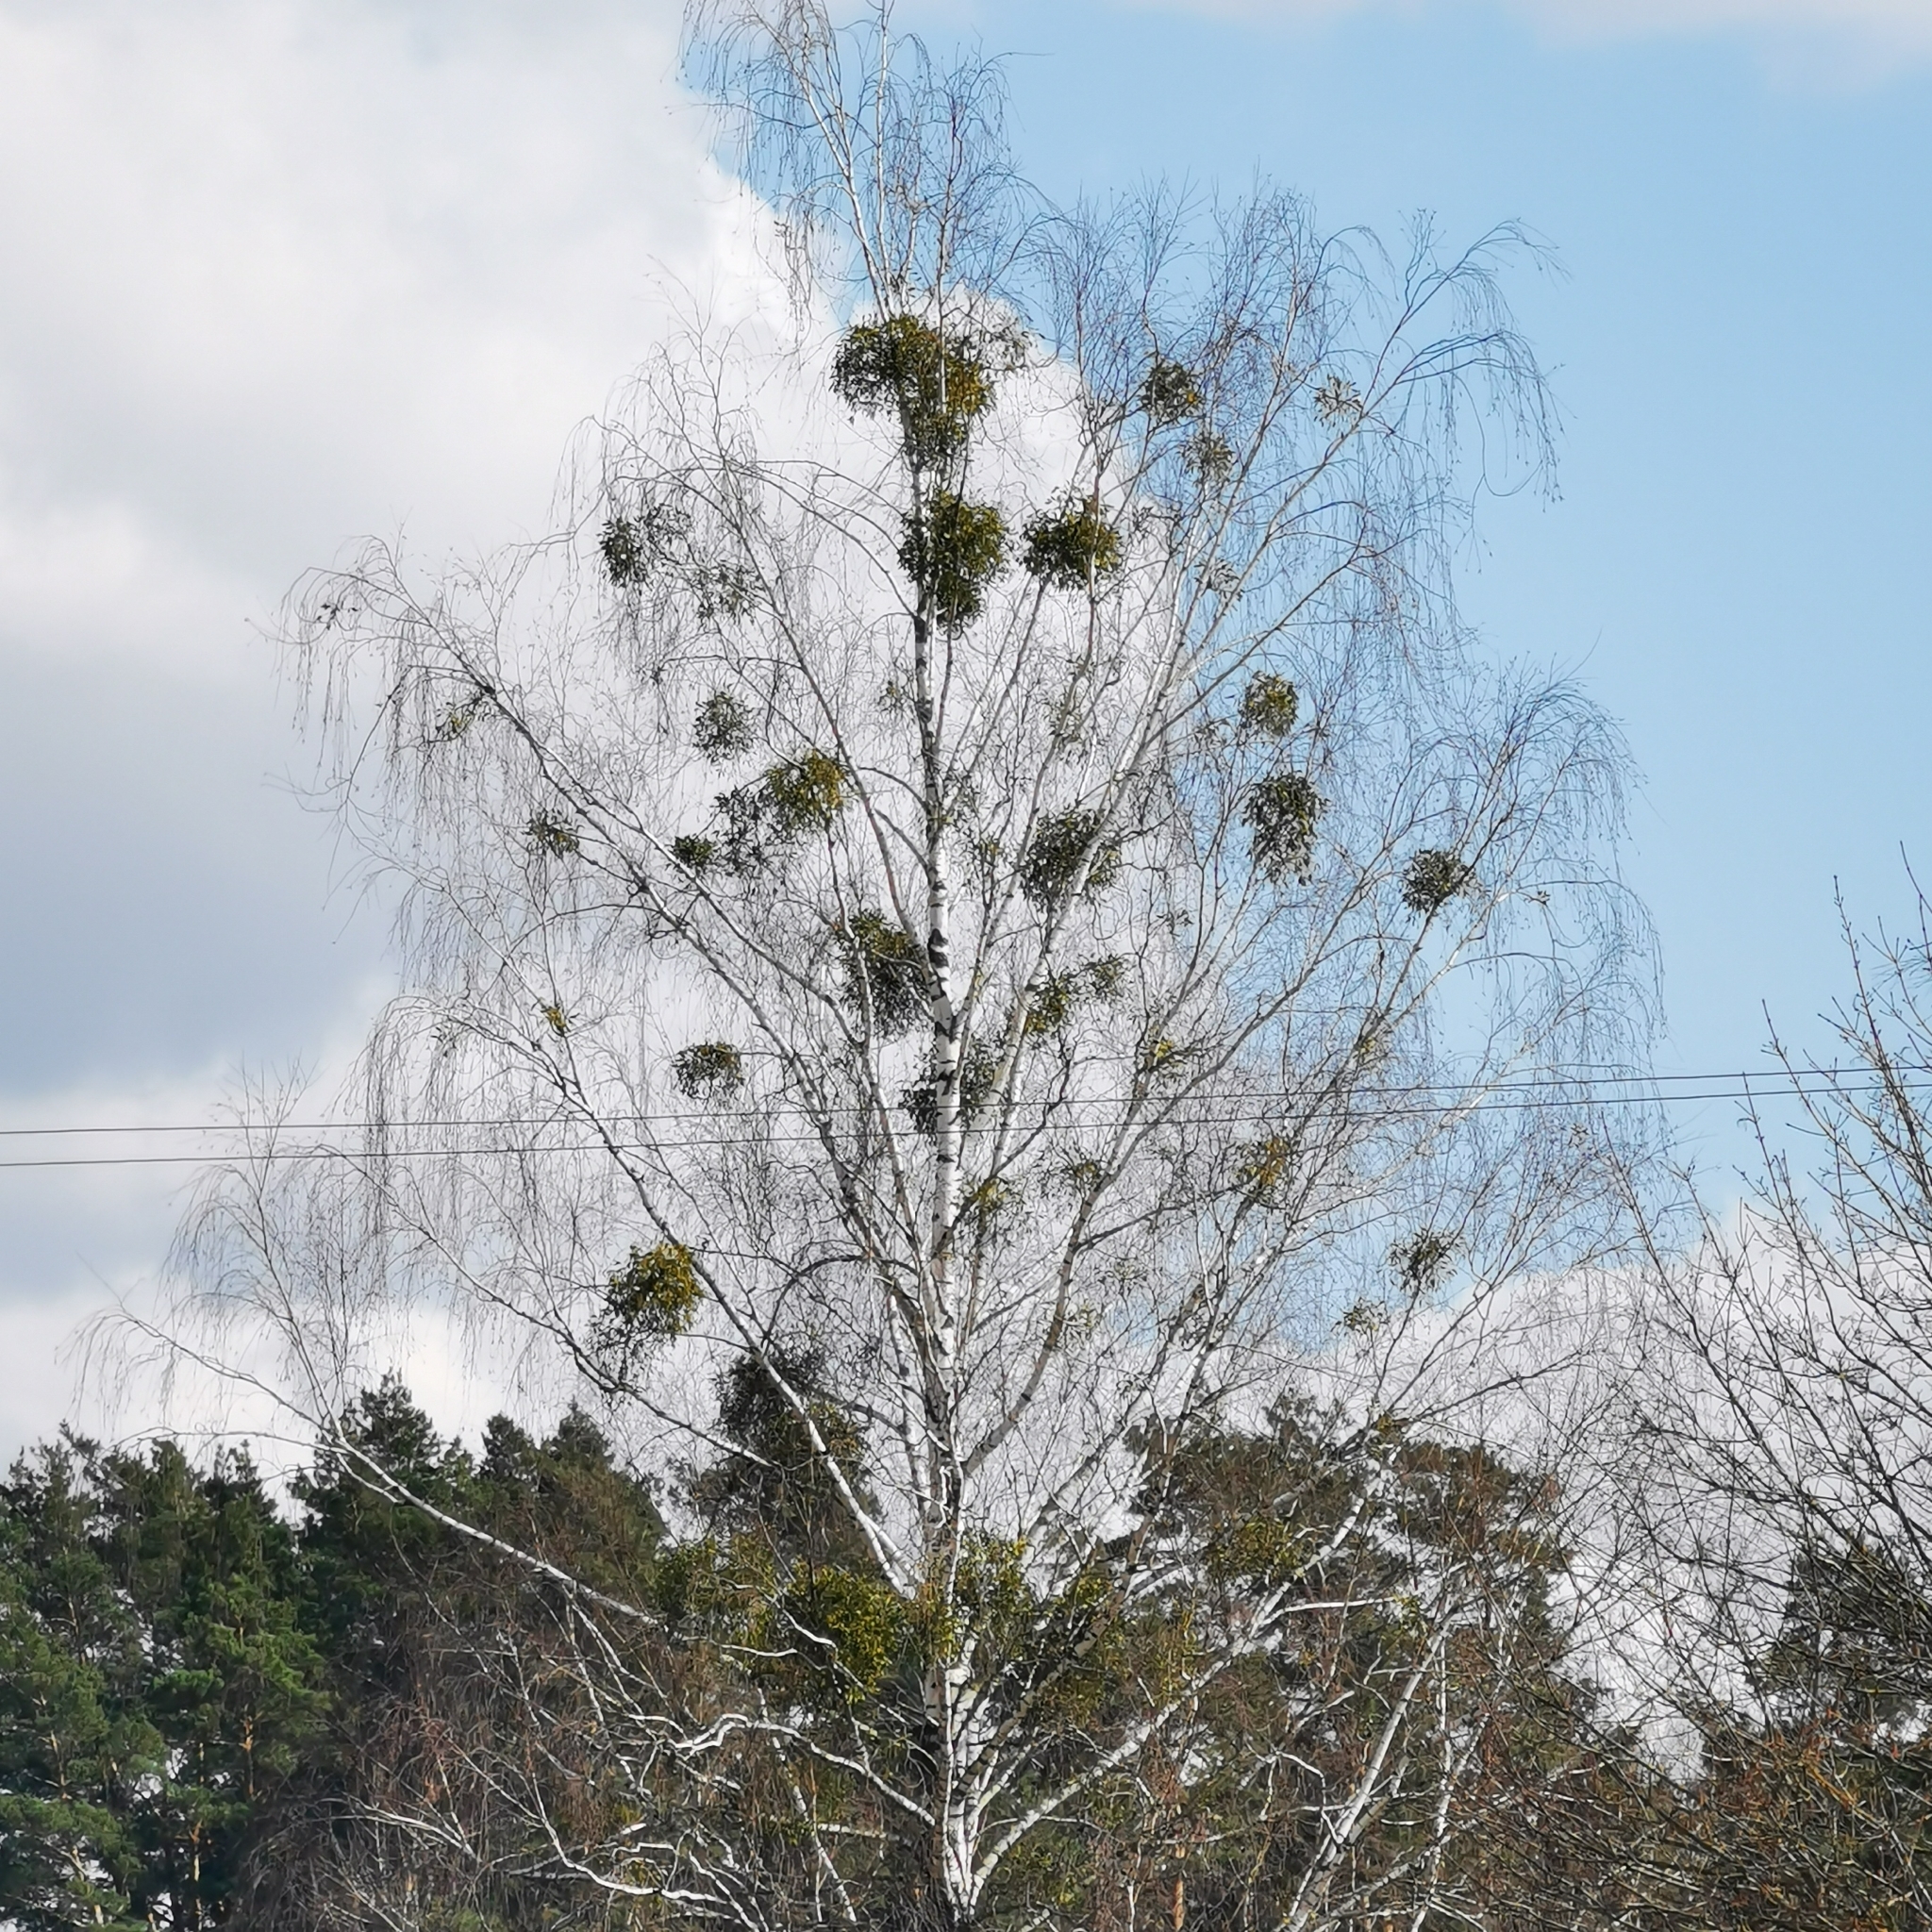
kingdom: Plantae
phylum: Tracheophyta
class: Magnoliopsida
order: Santalales
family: Viscaceae
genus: Viscum
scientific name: Viscum album
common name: Mistletoe
